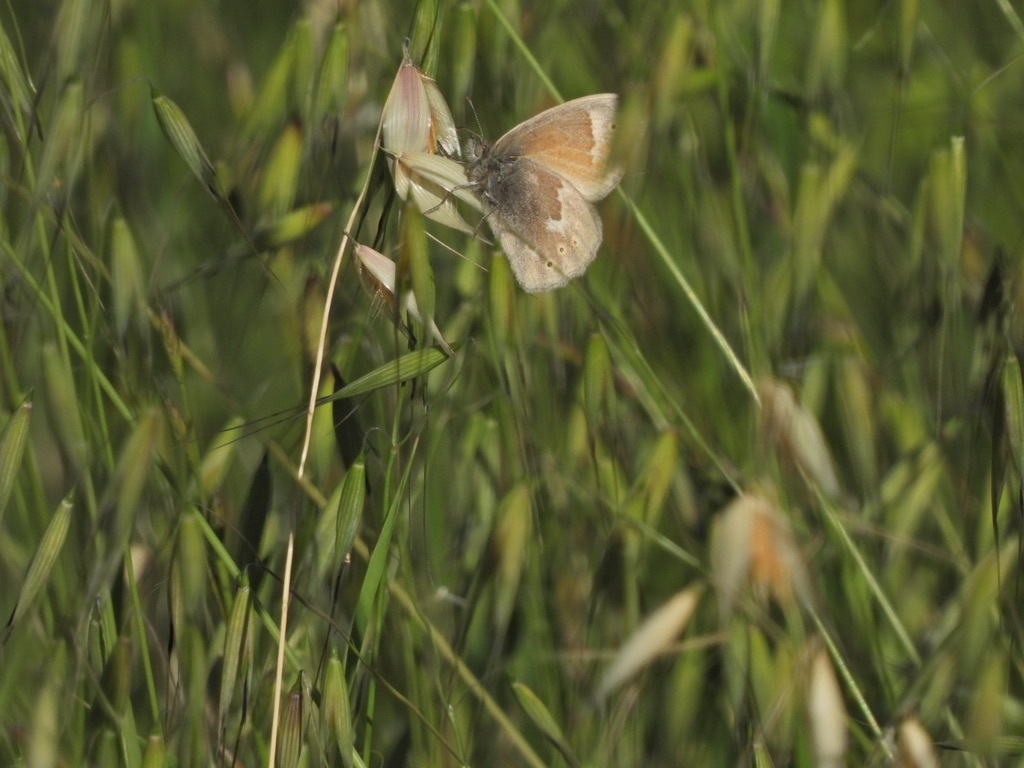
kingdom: Animalia
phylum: Arthropoda
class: Insecta
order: Lepidoptera
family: Nymphalidae
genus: Coenonympha
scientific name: Coenonympha california
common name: Common ringlet
